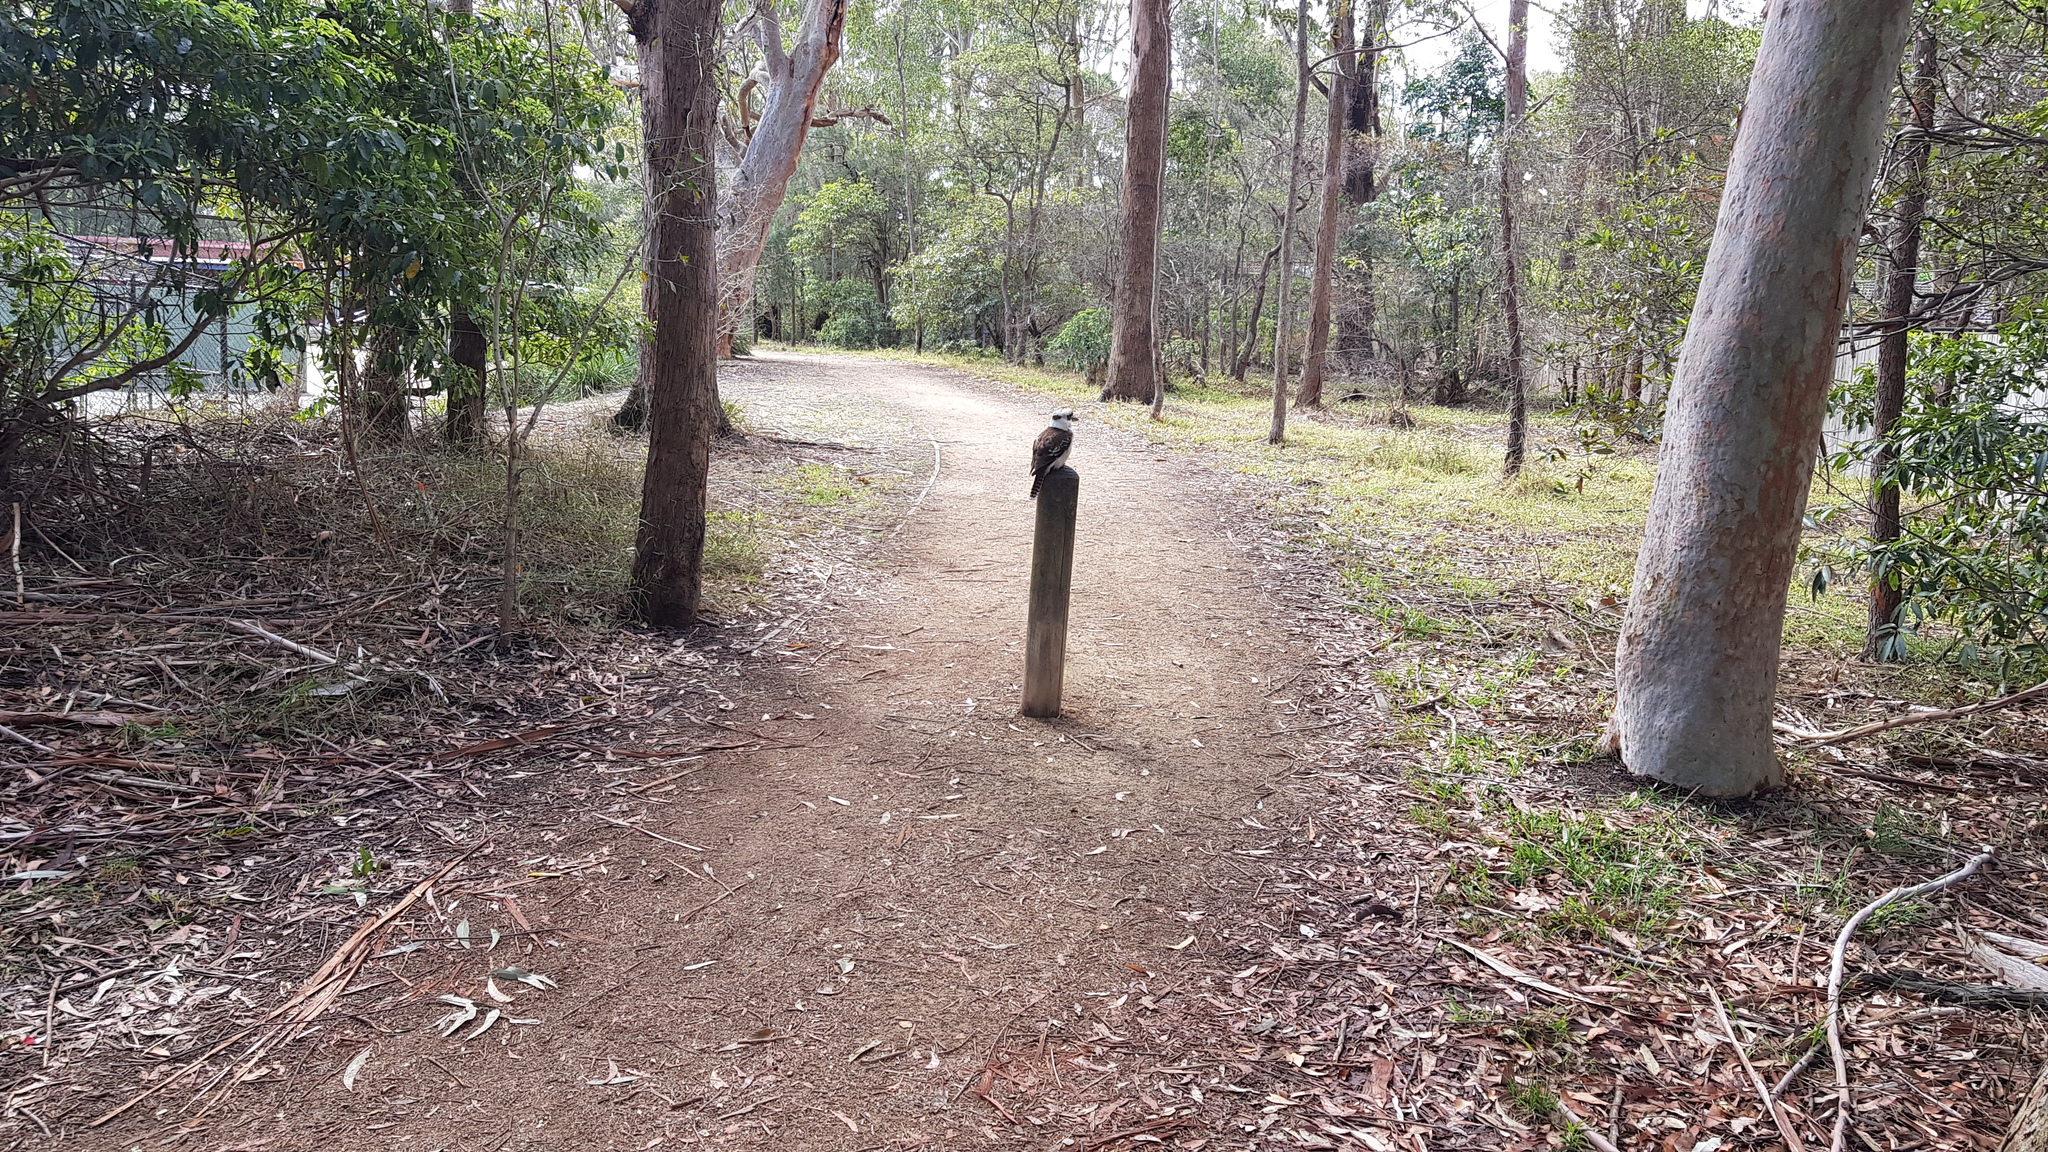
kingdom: Animalia
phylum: Chordata
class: Aves
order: Coraciiformes
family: Alcedinidae
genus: Dacelo
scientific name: Dacelo novaeguineae
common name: Laughing kookaburra
